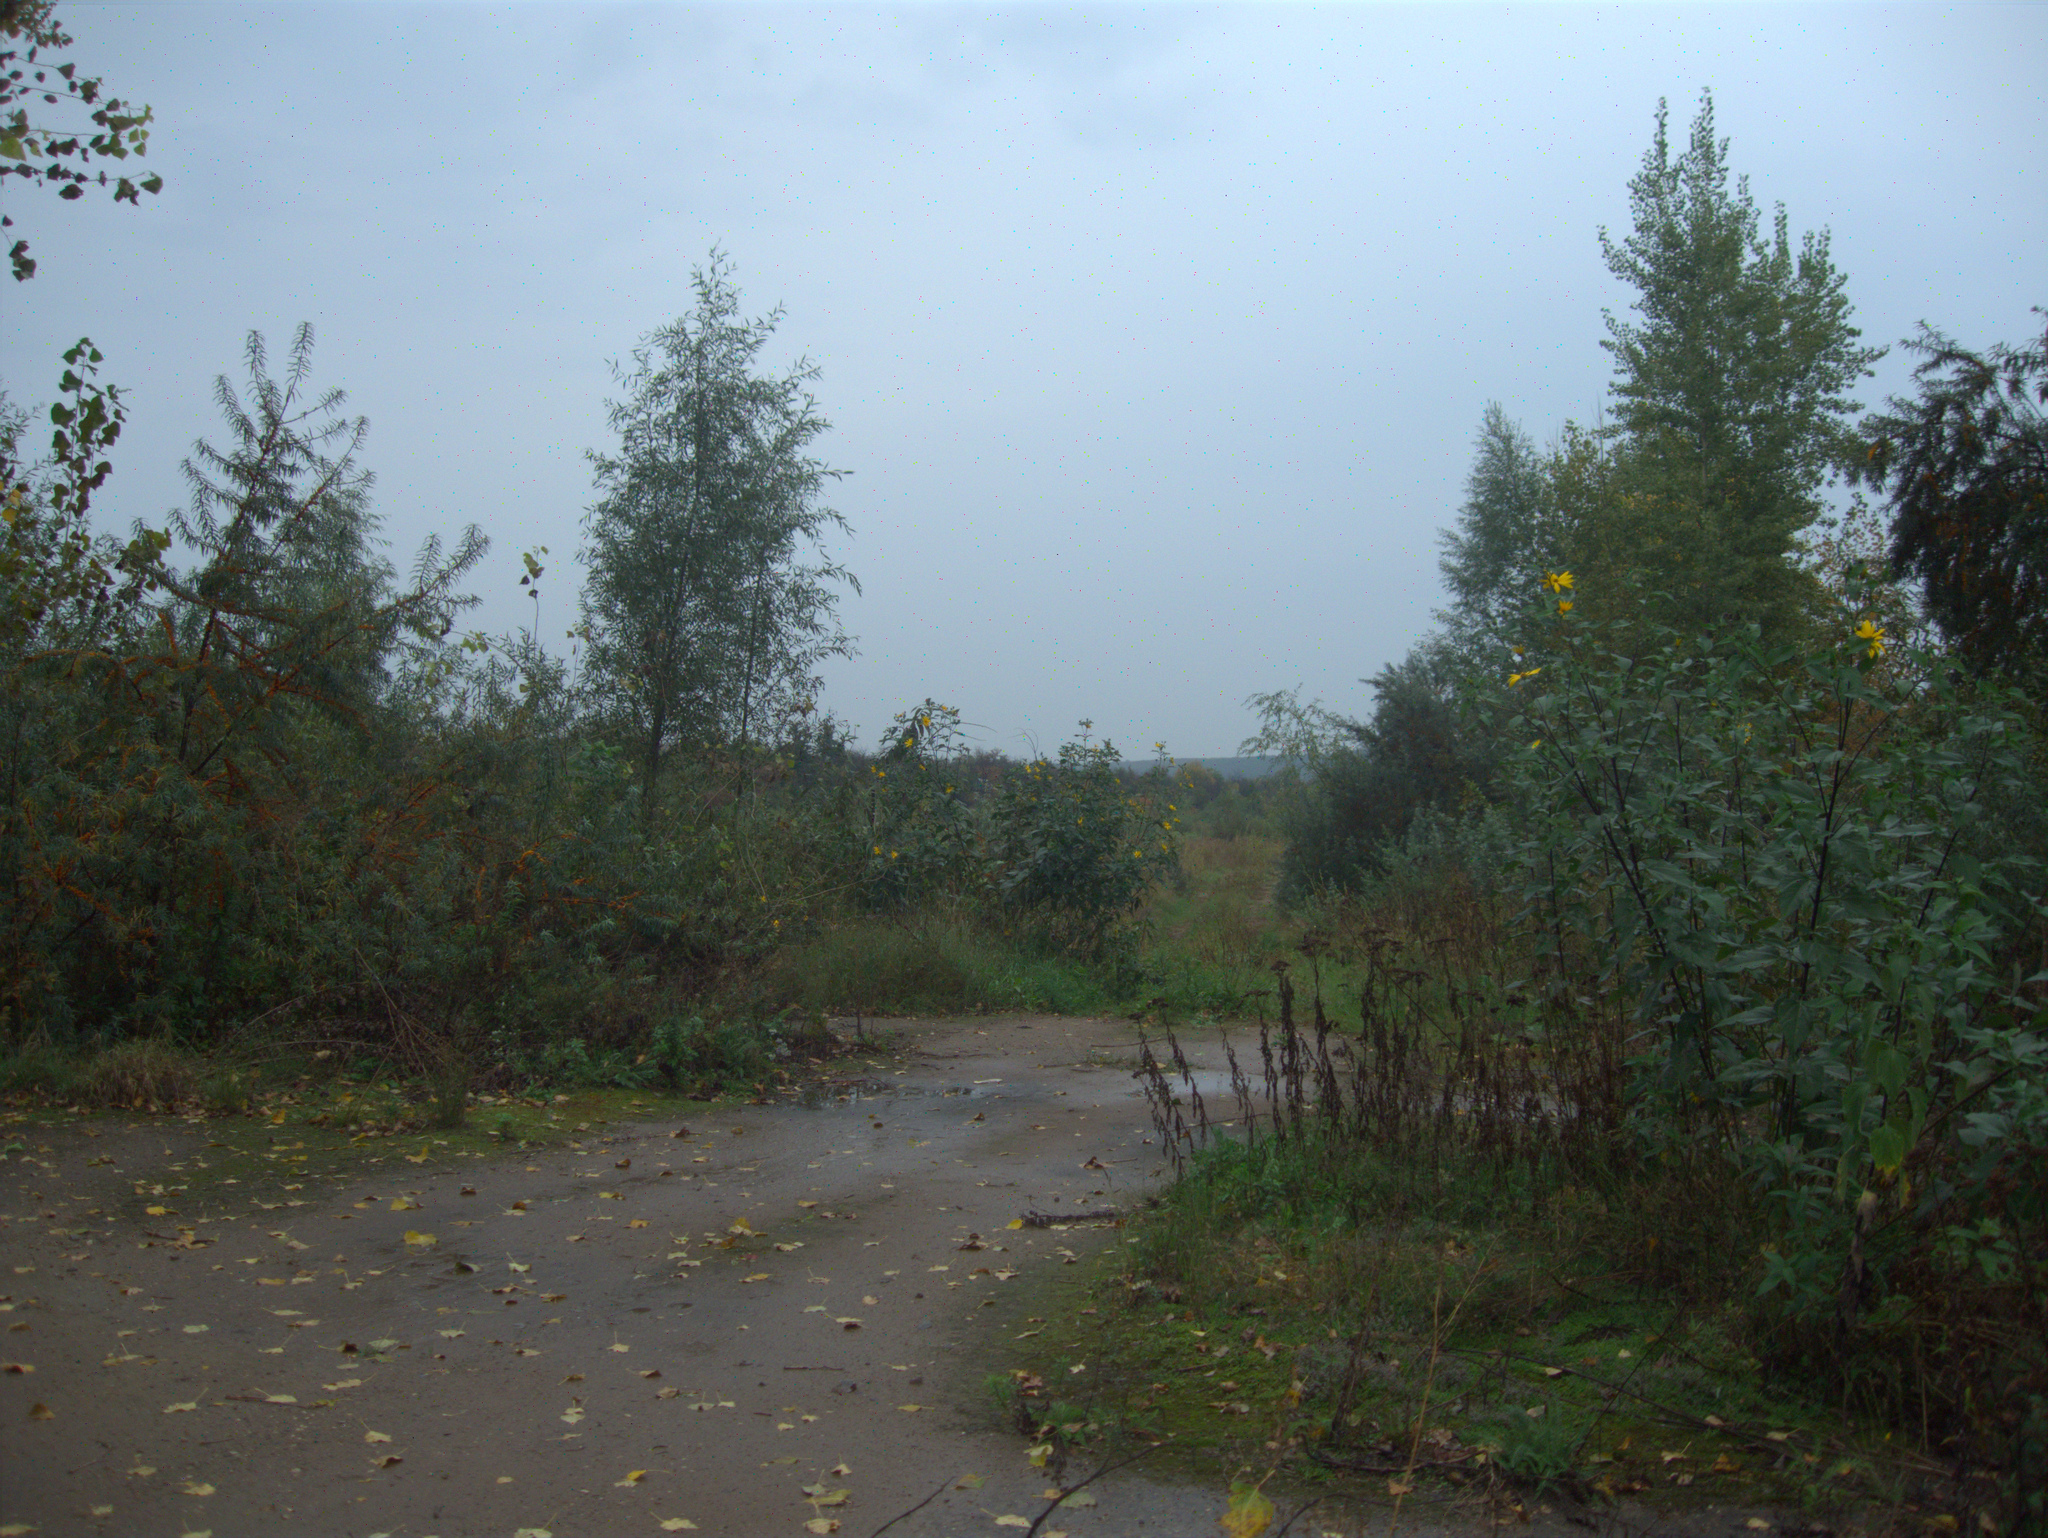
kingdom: Plantae
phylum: Tracheophyta
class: Magnoliopsida
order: Rosales
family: Elaeagnaceae
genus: Hippophae
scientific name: Hippophae rhamnoides
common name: Sea-buckthorn
